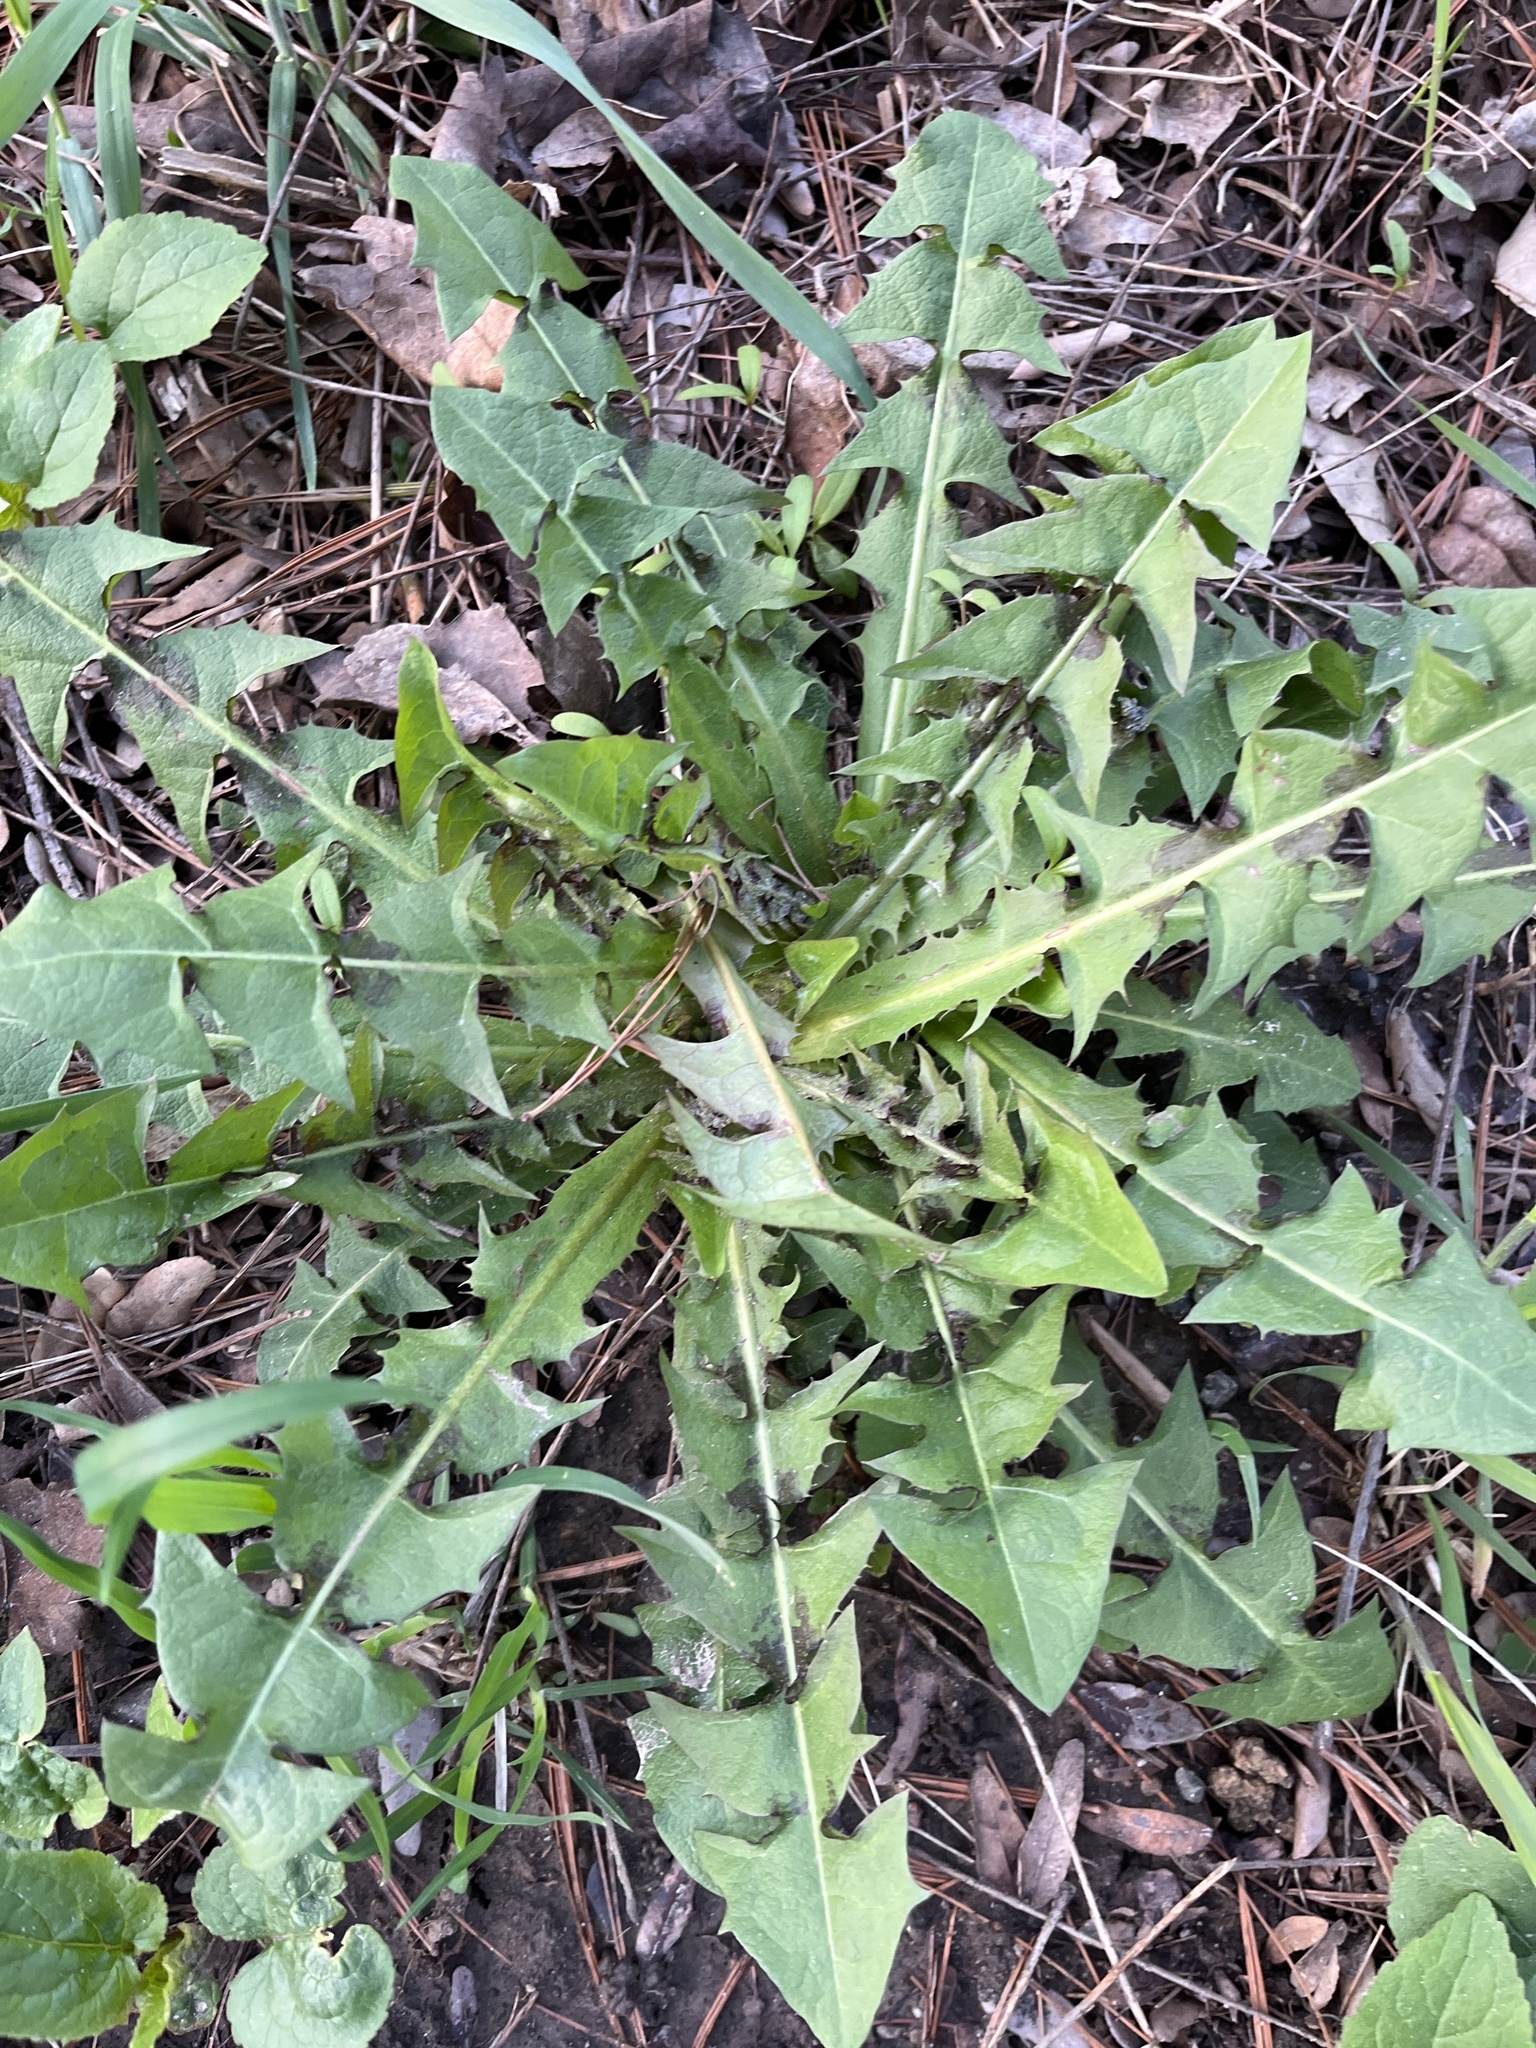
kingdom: Plantae
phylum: Tracheophyta
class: Magnoliopsida
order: Asterales
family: Asteraceae
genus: Taraxacum
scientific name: Taraxacum officinale
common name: Common dandelion
